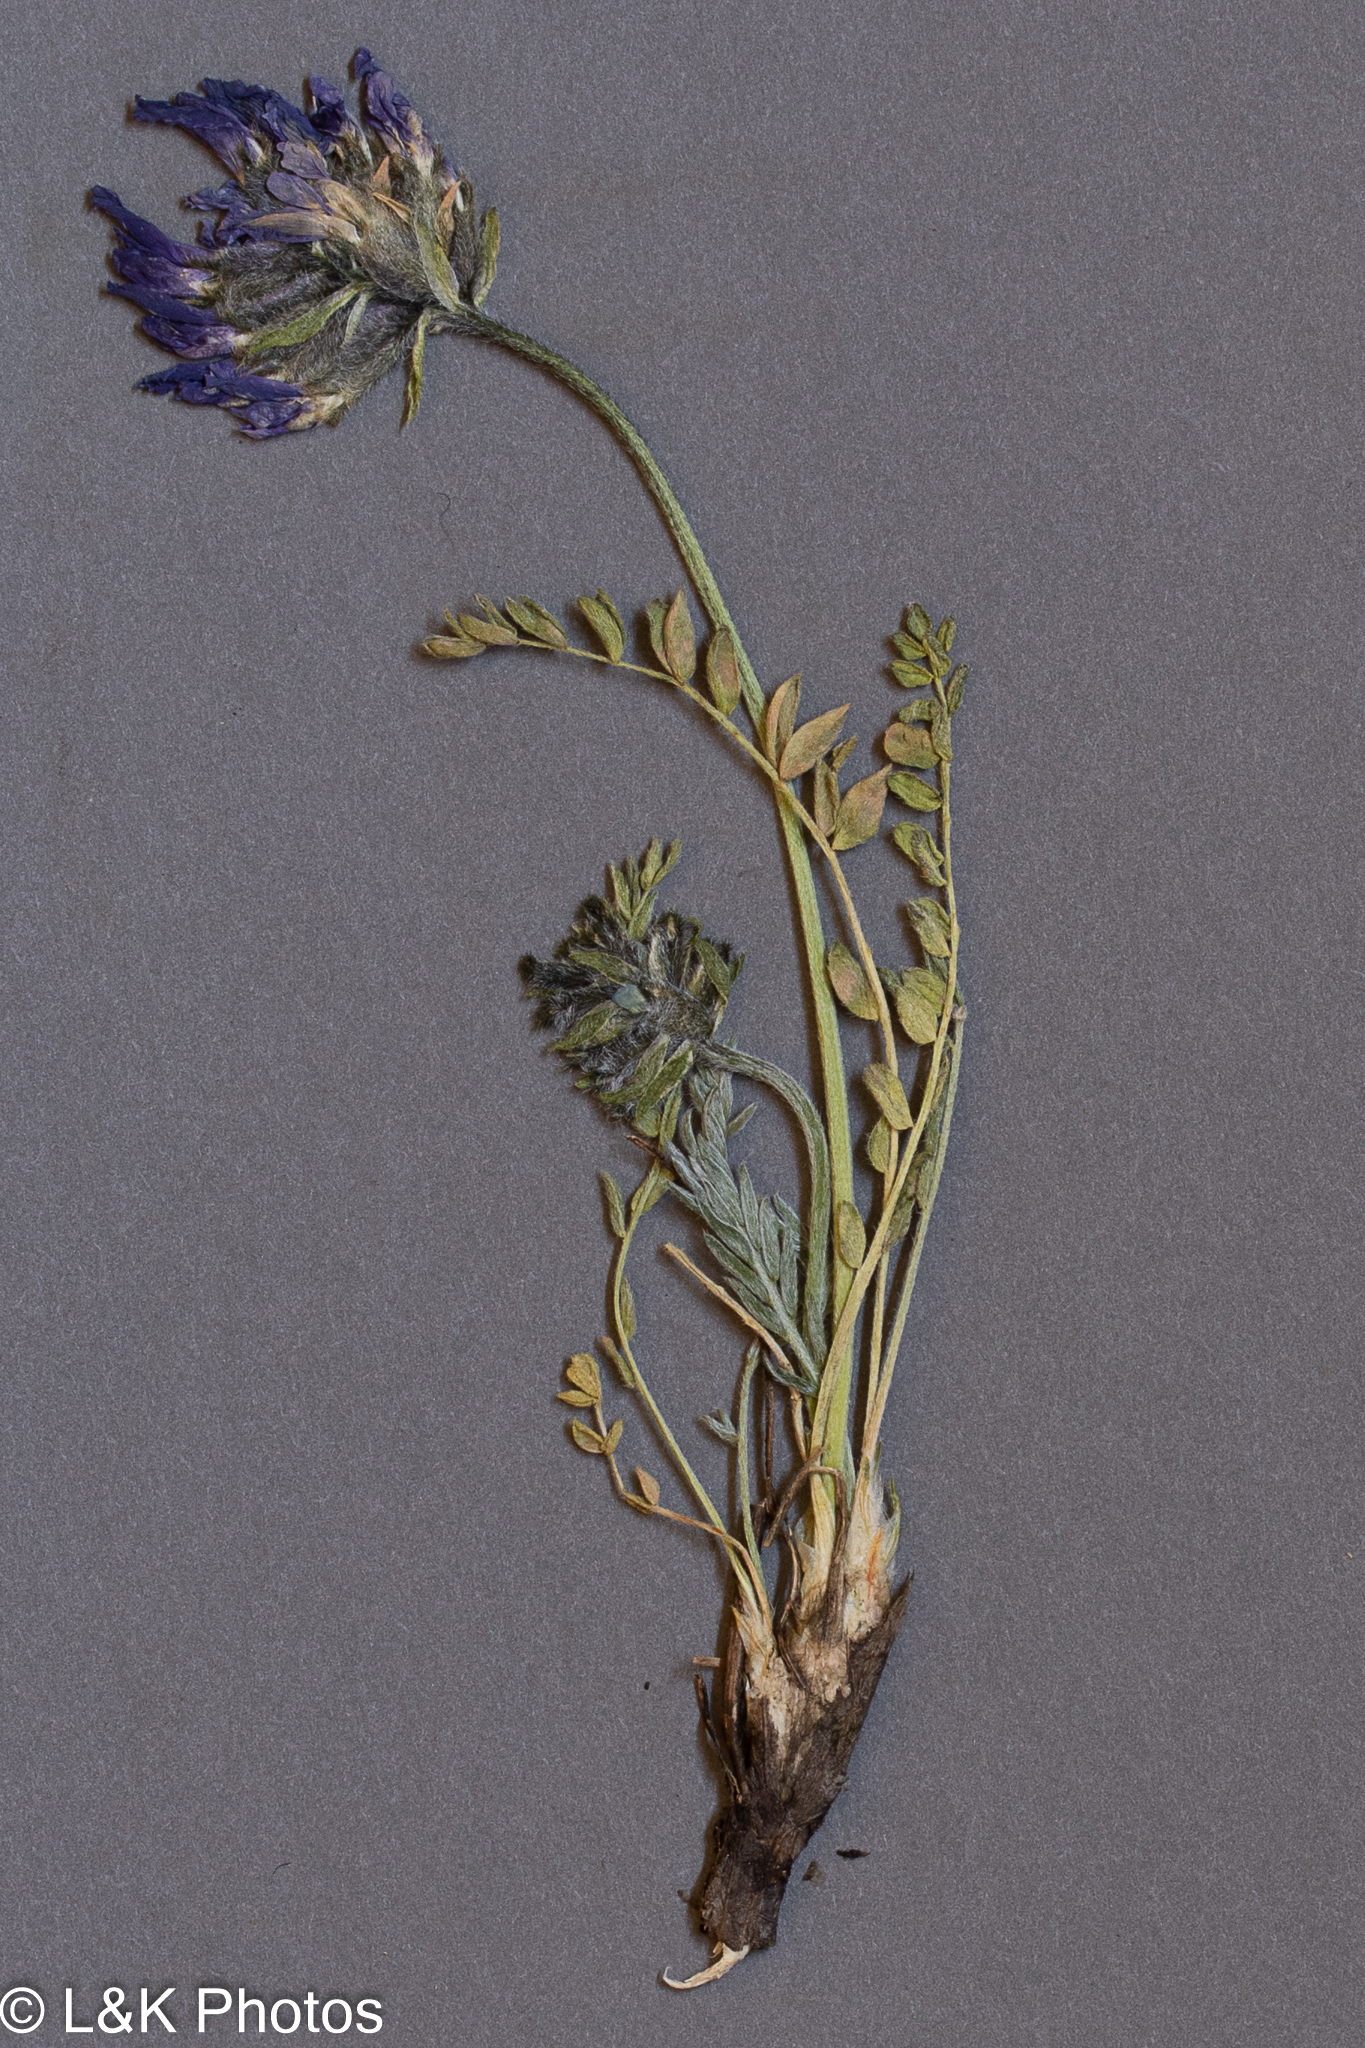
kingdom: Plantae
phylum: Tracheophyta
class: Magnoliopsida
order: Fabales
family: Fabaceae
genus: Oxytropis
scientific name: Oxytropis jordalii
